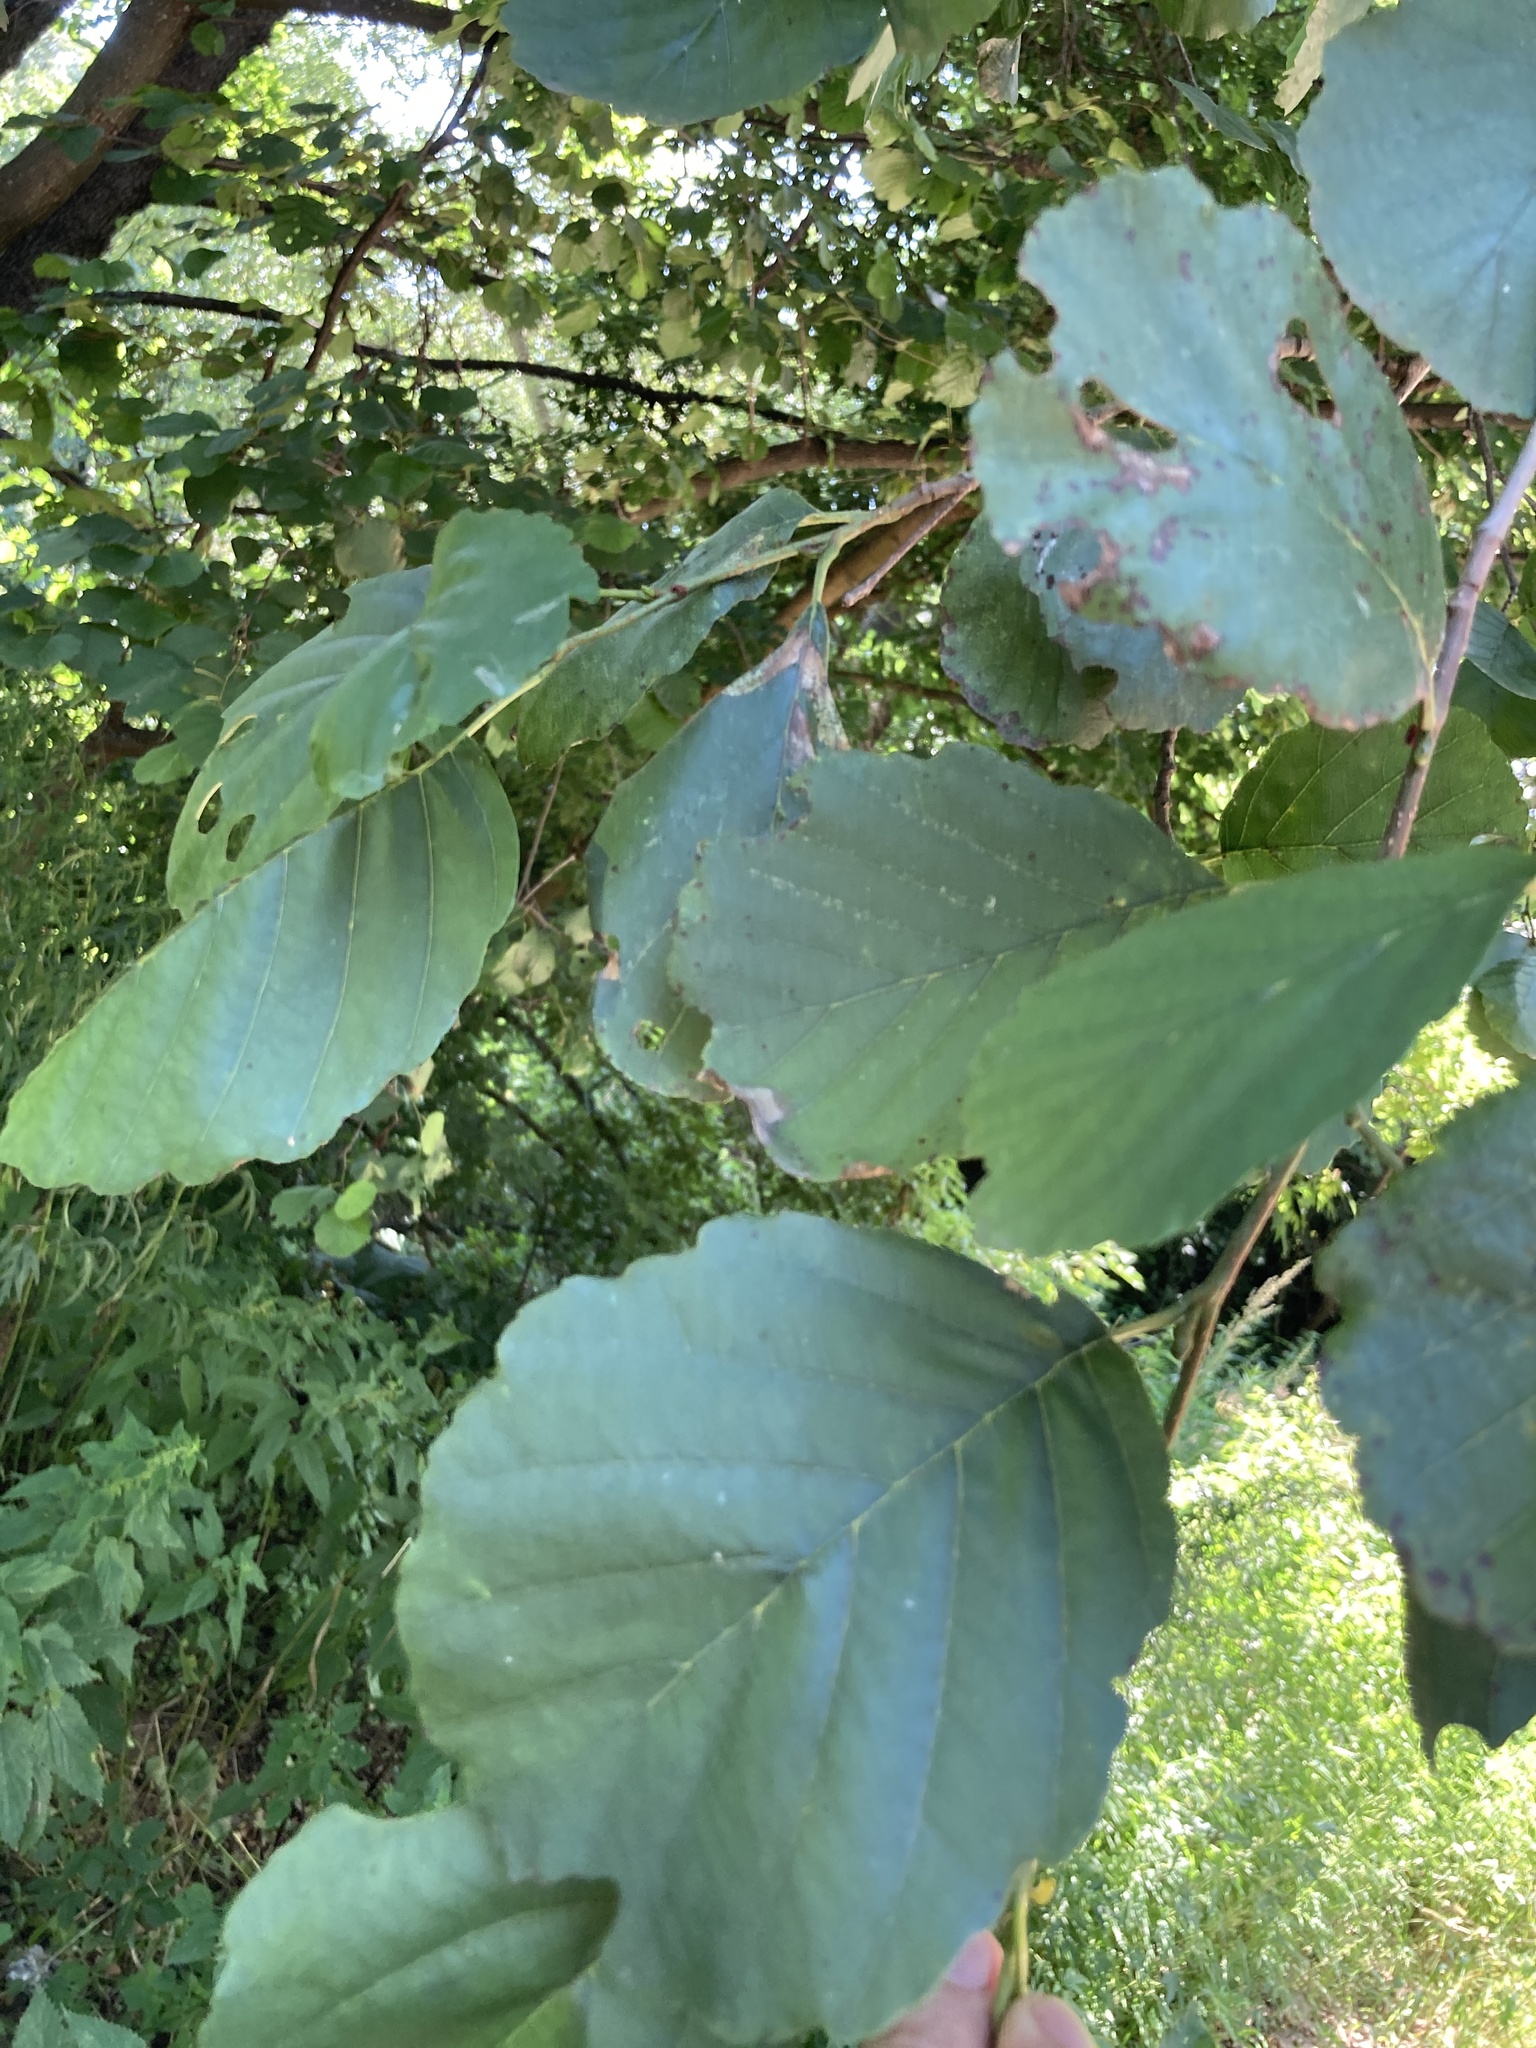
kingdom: Plantae
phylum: Tracheophyta
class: Magnoliopsida
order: Fagales
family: Betulaceae
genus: Alnus
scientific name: Alnus glutinosa
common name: Black alder
